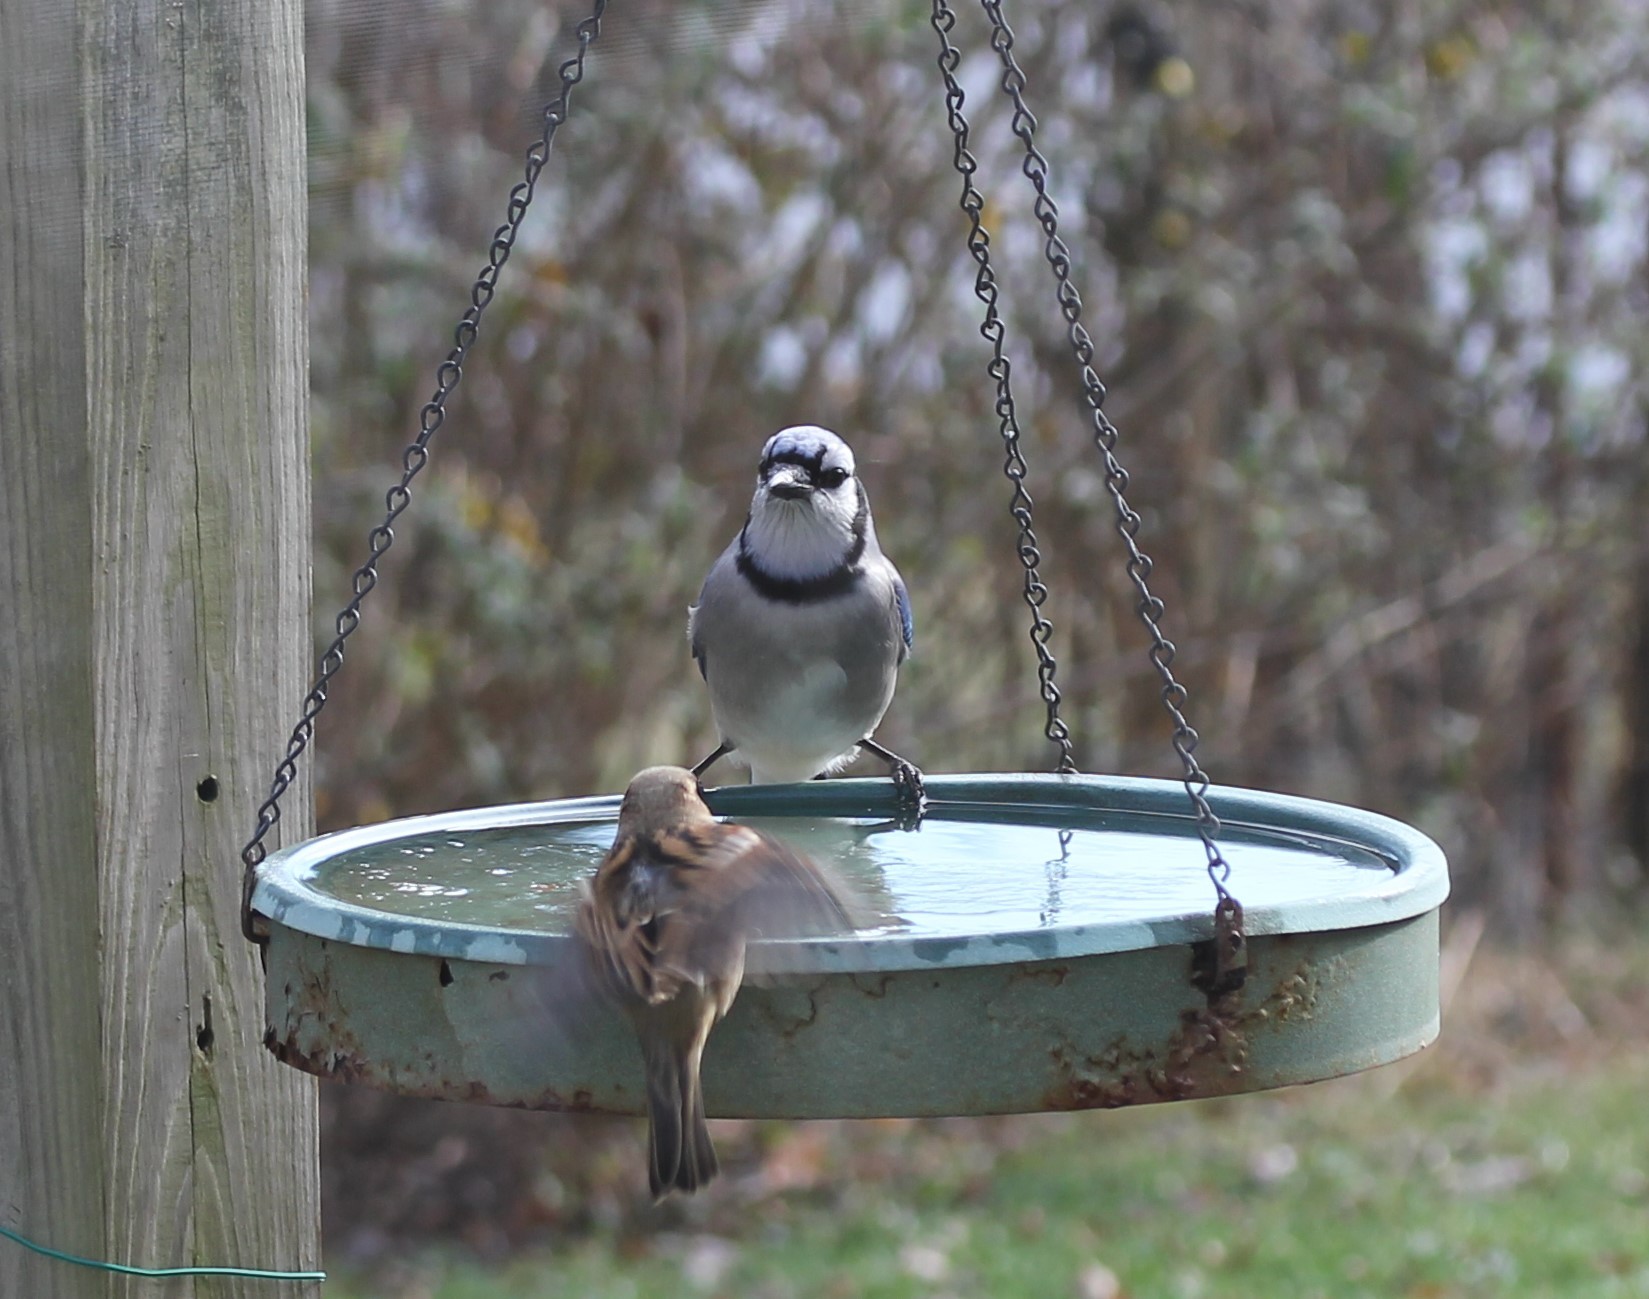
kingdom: Animalia
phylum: Chordata
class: Aves
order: Passeriformes
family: Corvidae
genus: Cyanocitta
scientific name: Cyanocitta cristata
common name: Blue jay
